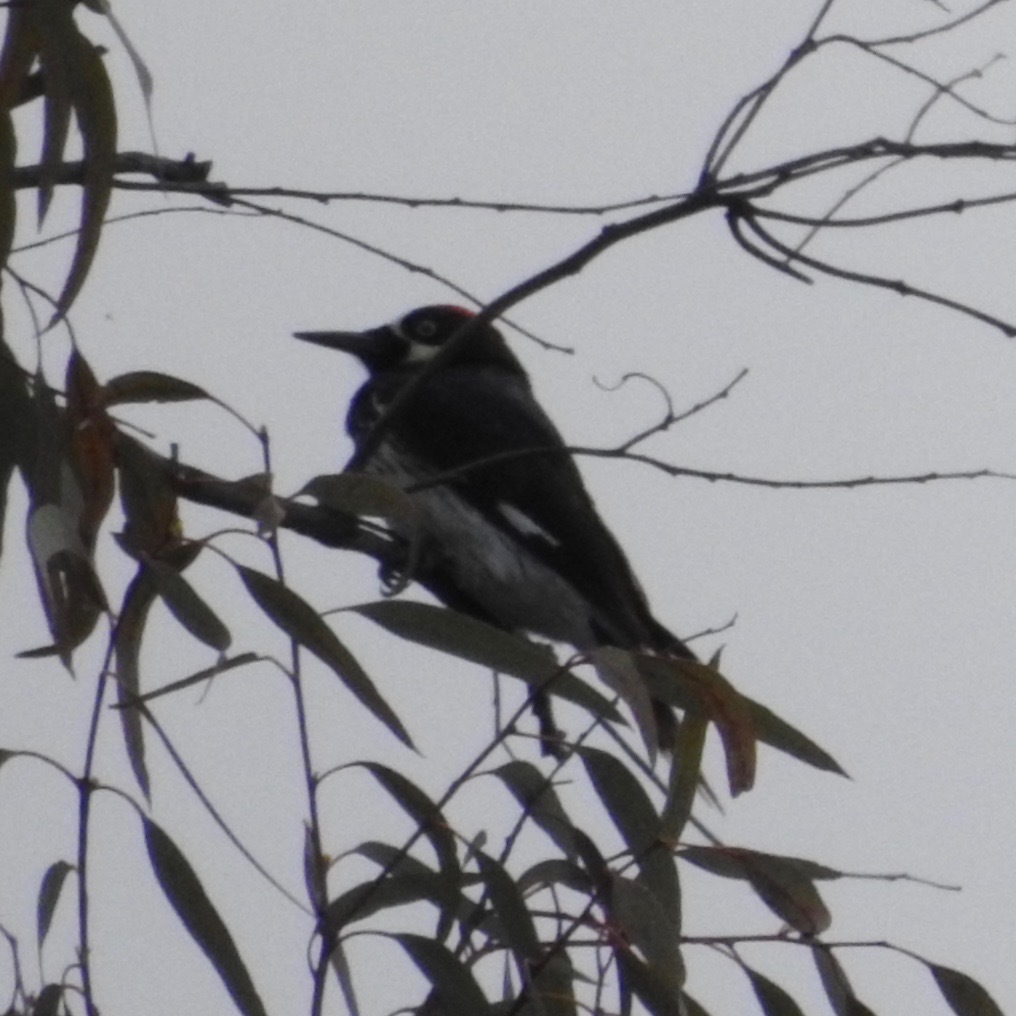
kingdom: Animalia
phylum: Chordata
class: Aves
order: Piciformes
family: Picidae
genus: Melanerpes
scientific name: Melanerpes formicivorus
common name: Acorn woodpecker
